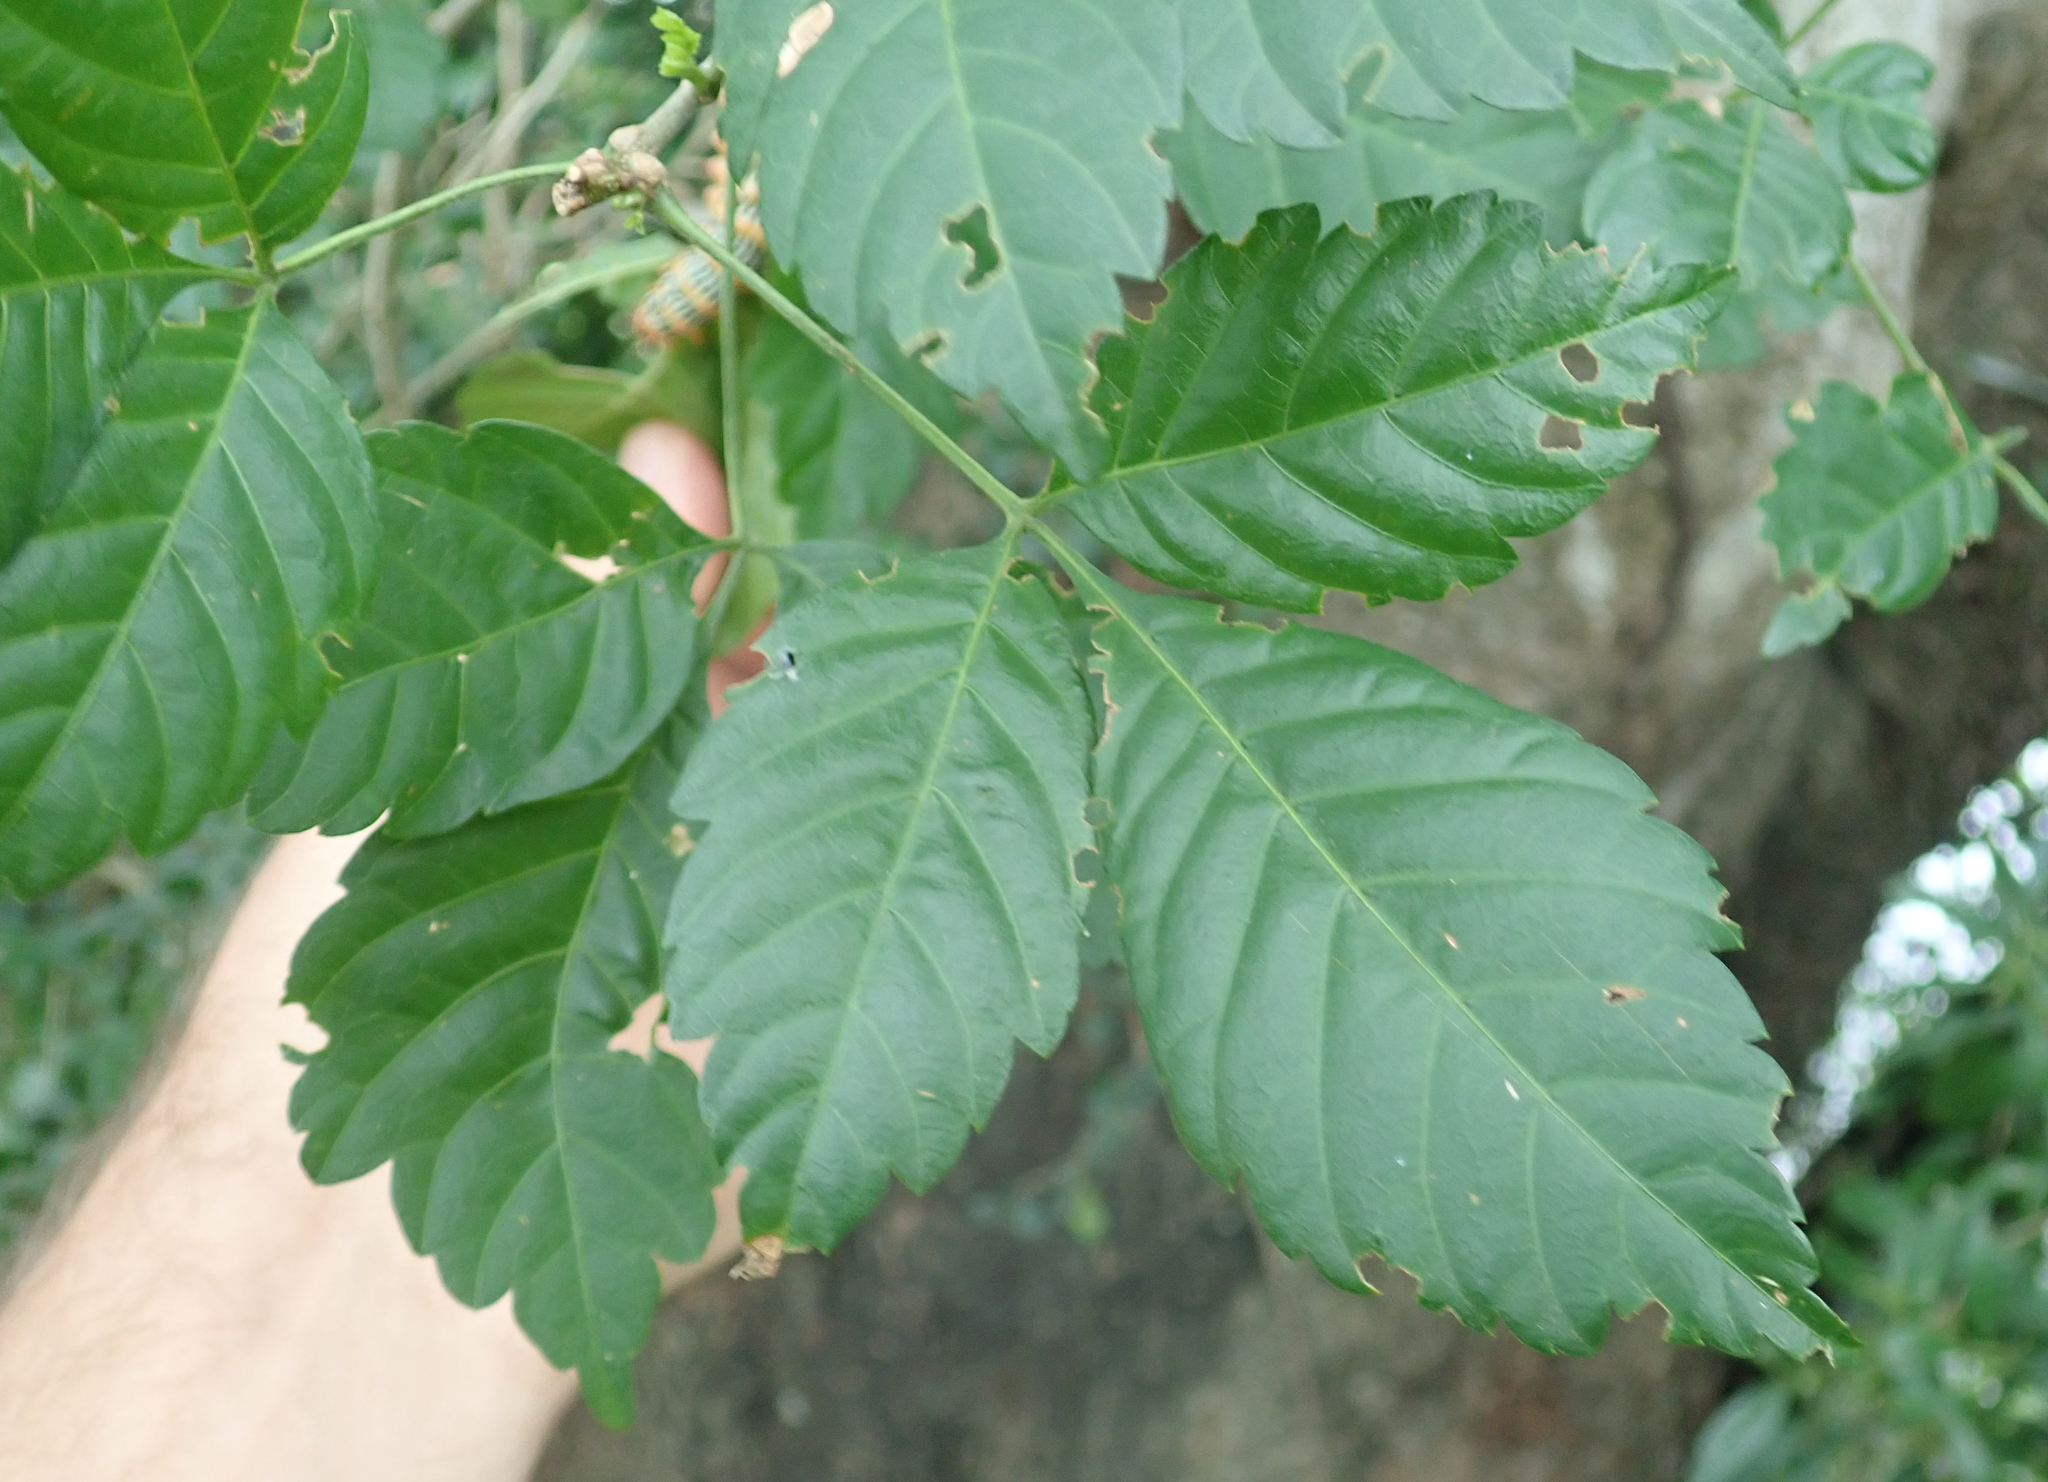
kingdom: Plantae
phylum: Tracheophyta
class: Magnoliopsida
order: Sapindales
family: Sapindaceae
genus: Allophylus
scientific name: Allophylus africanus
